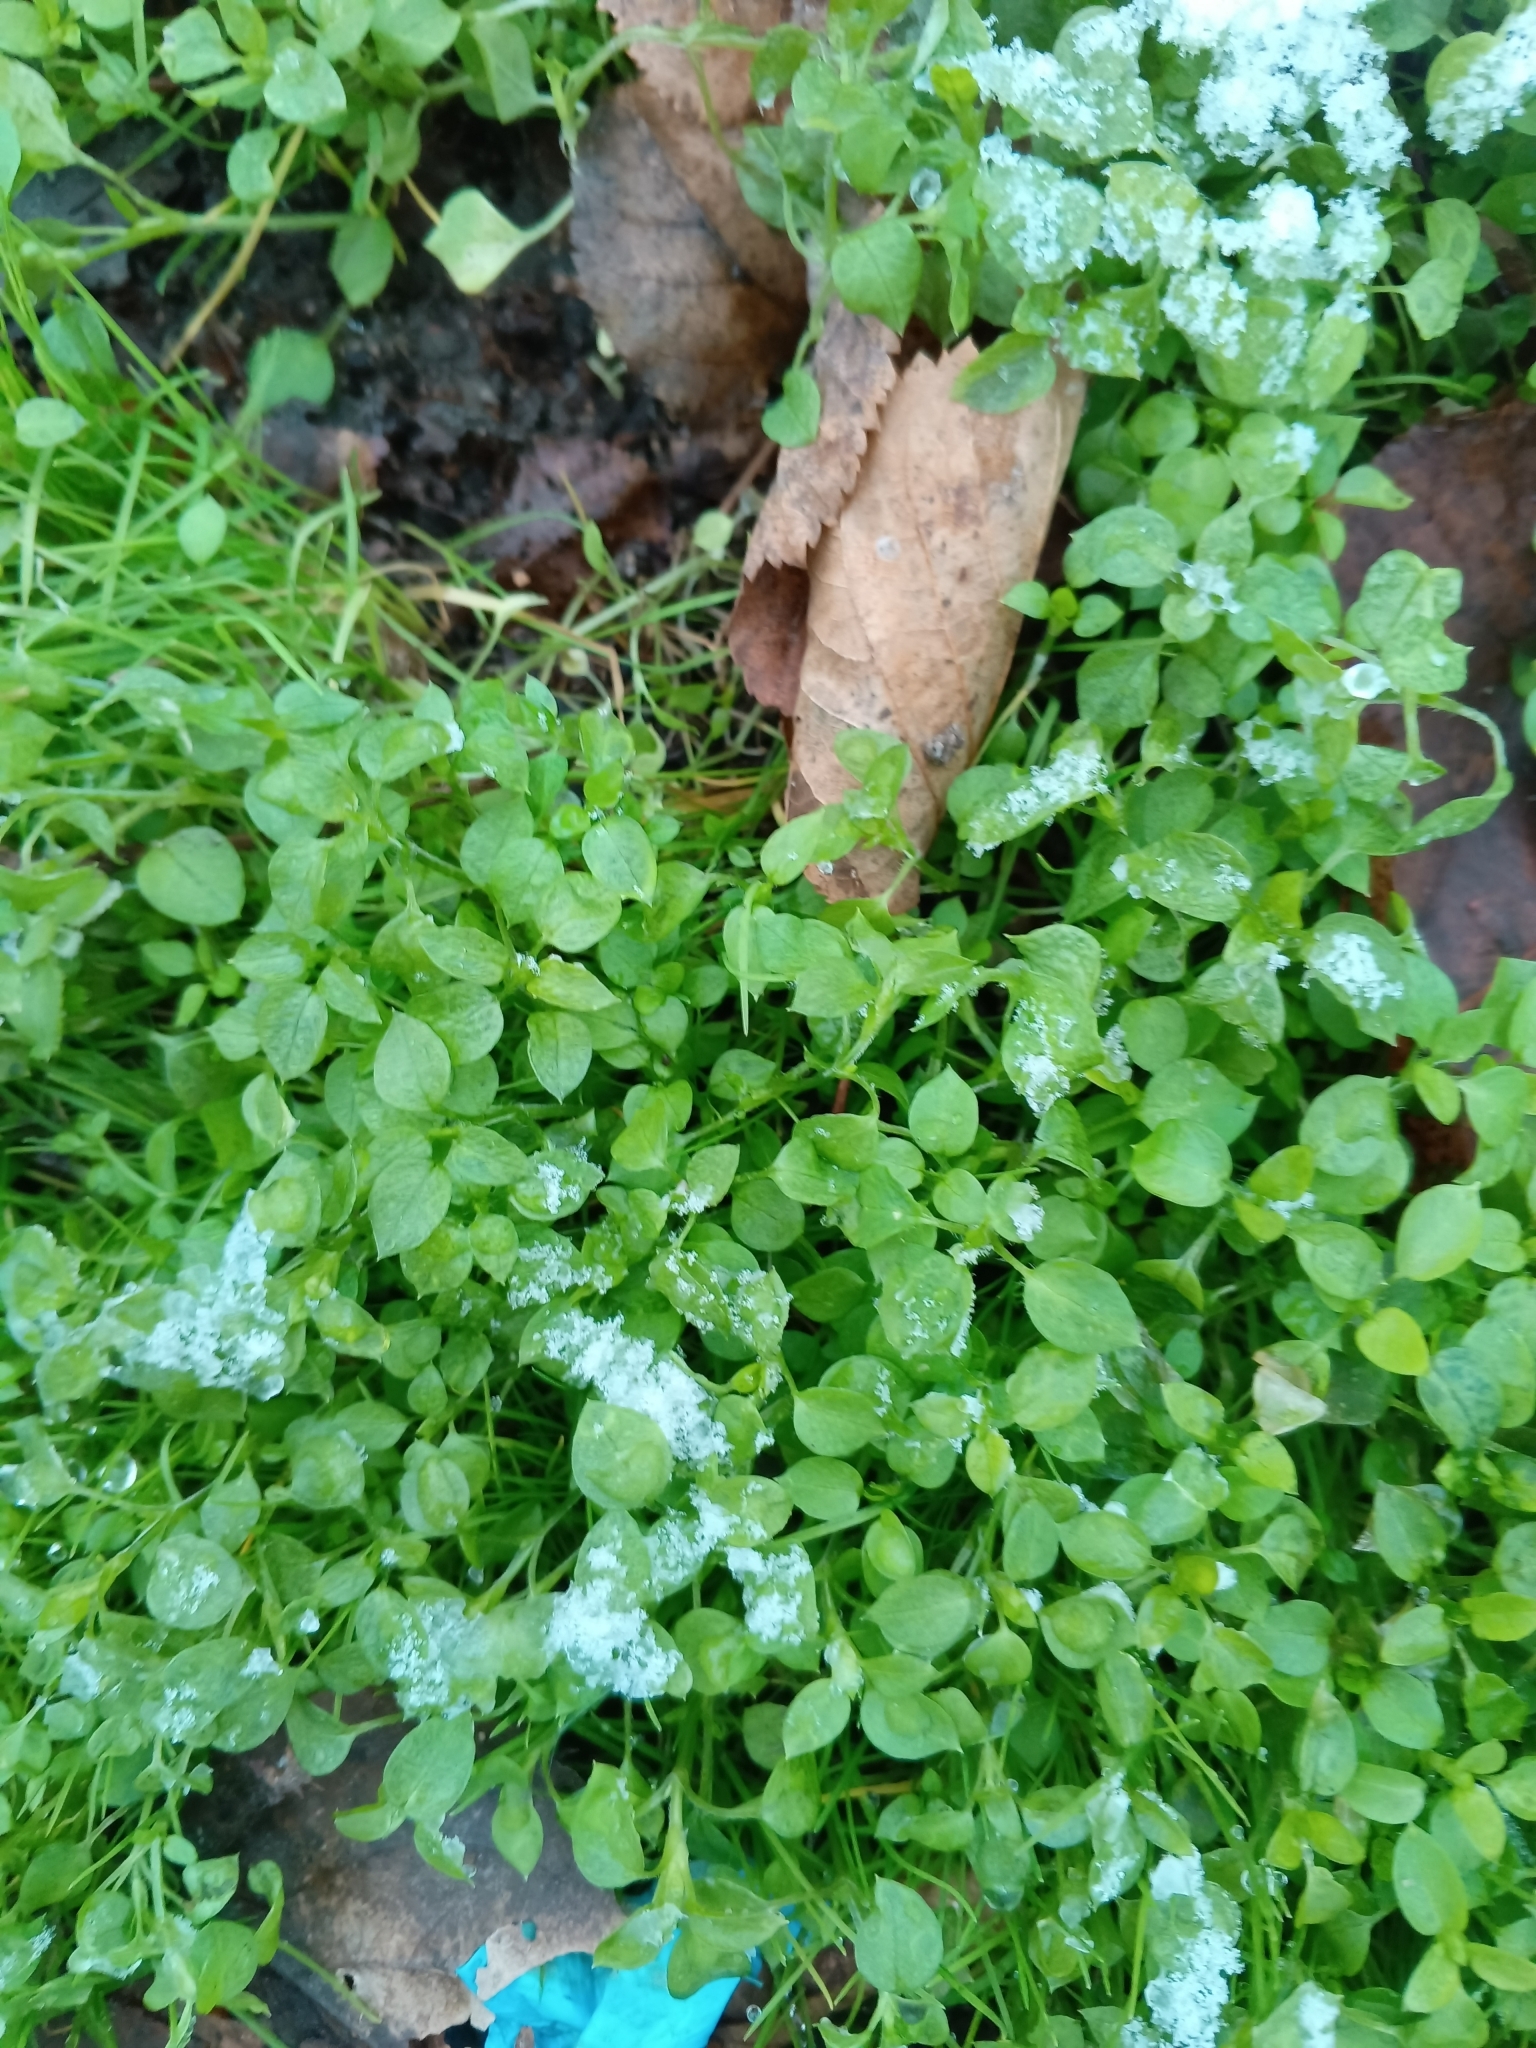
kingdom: Plantae
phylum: Tracheophyta
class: Magnoliopsida
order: Caryophyllales
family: Caryophyllaceae
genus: Stellaria
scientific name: Stellaria media
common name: Common chickweed
